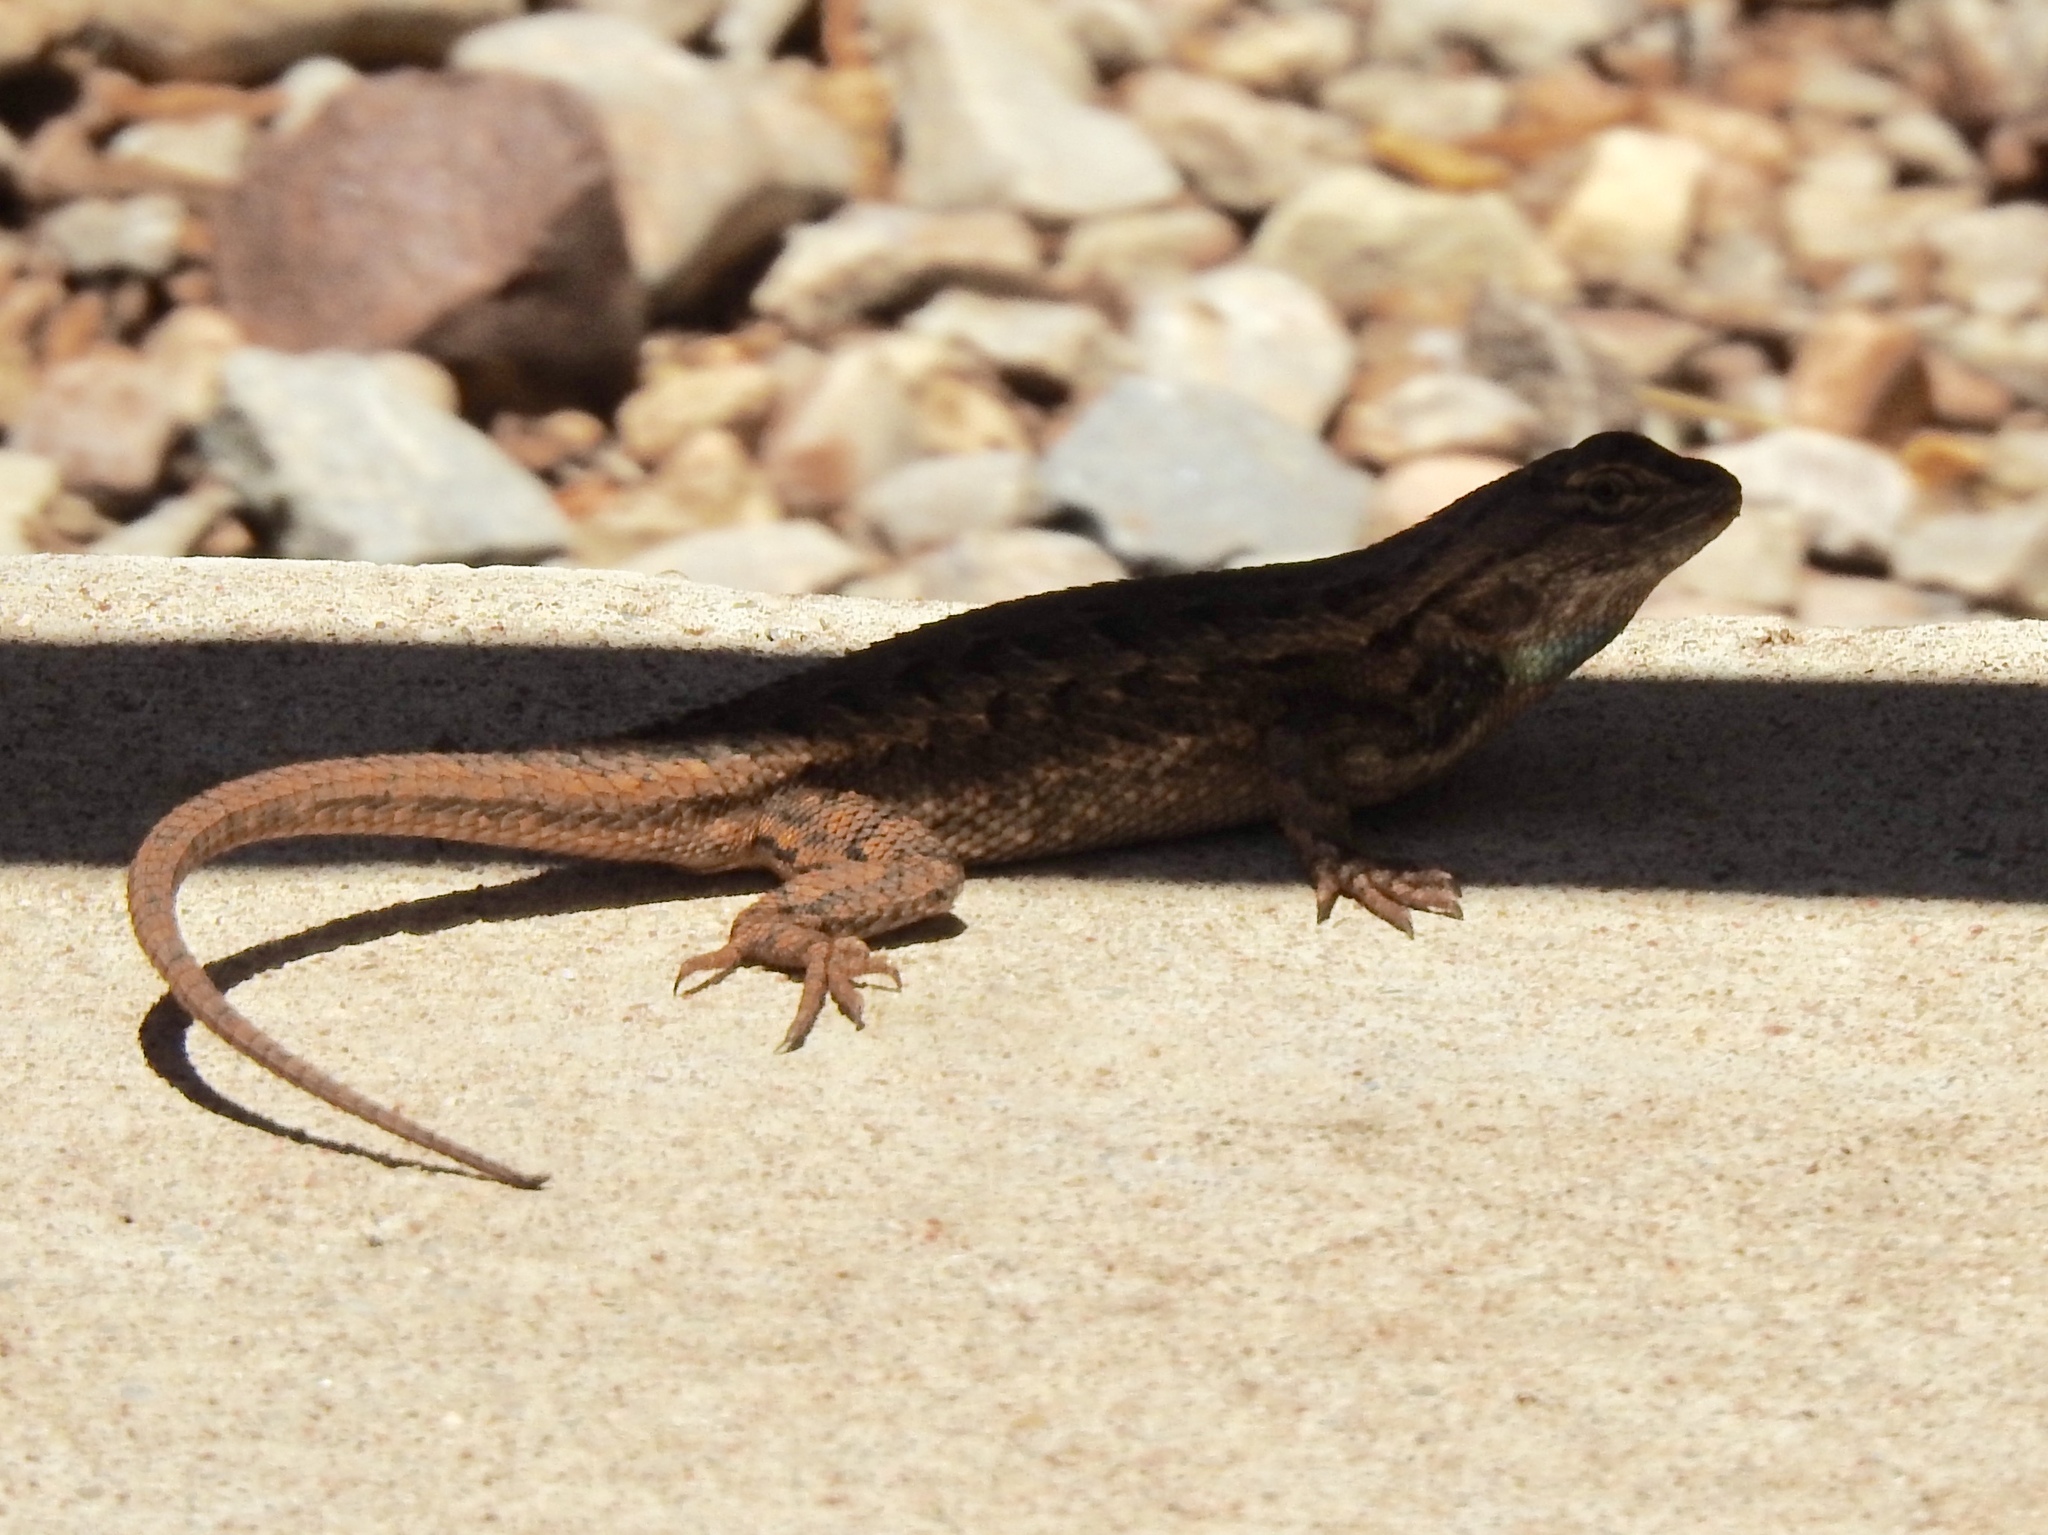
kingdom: Animalia
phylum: Chordata
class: Squamata
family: Phrynosomatidae
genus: Sceloporus
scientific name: Sceloporus cowlesi
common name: White sands prairie lizard
